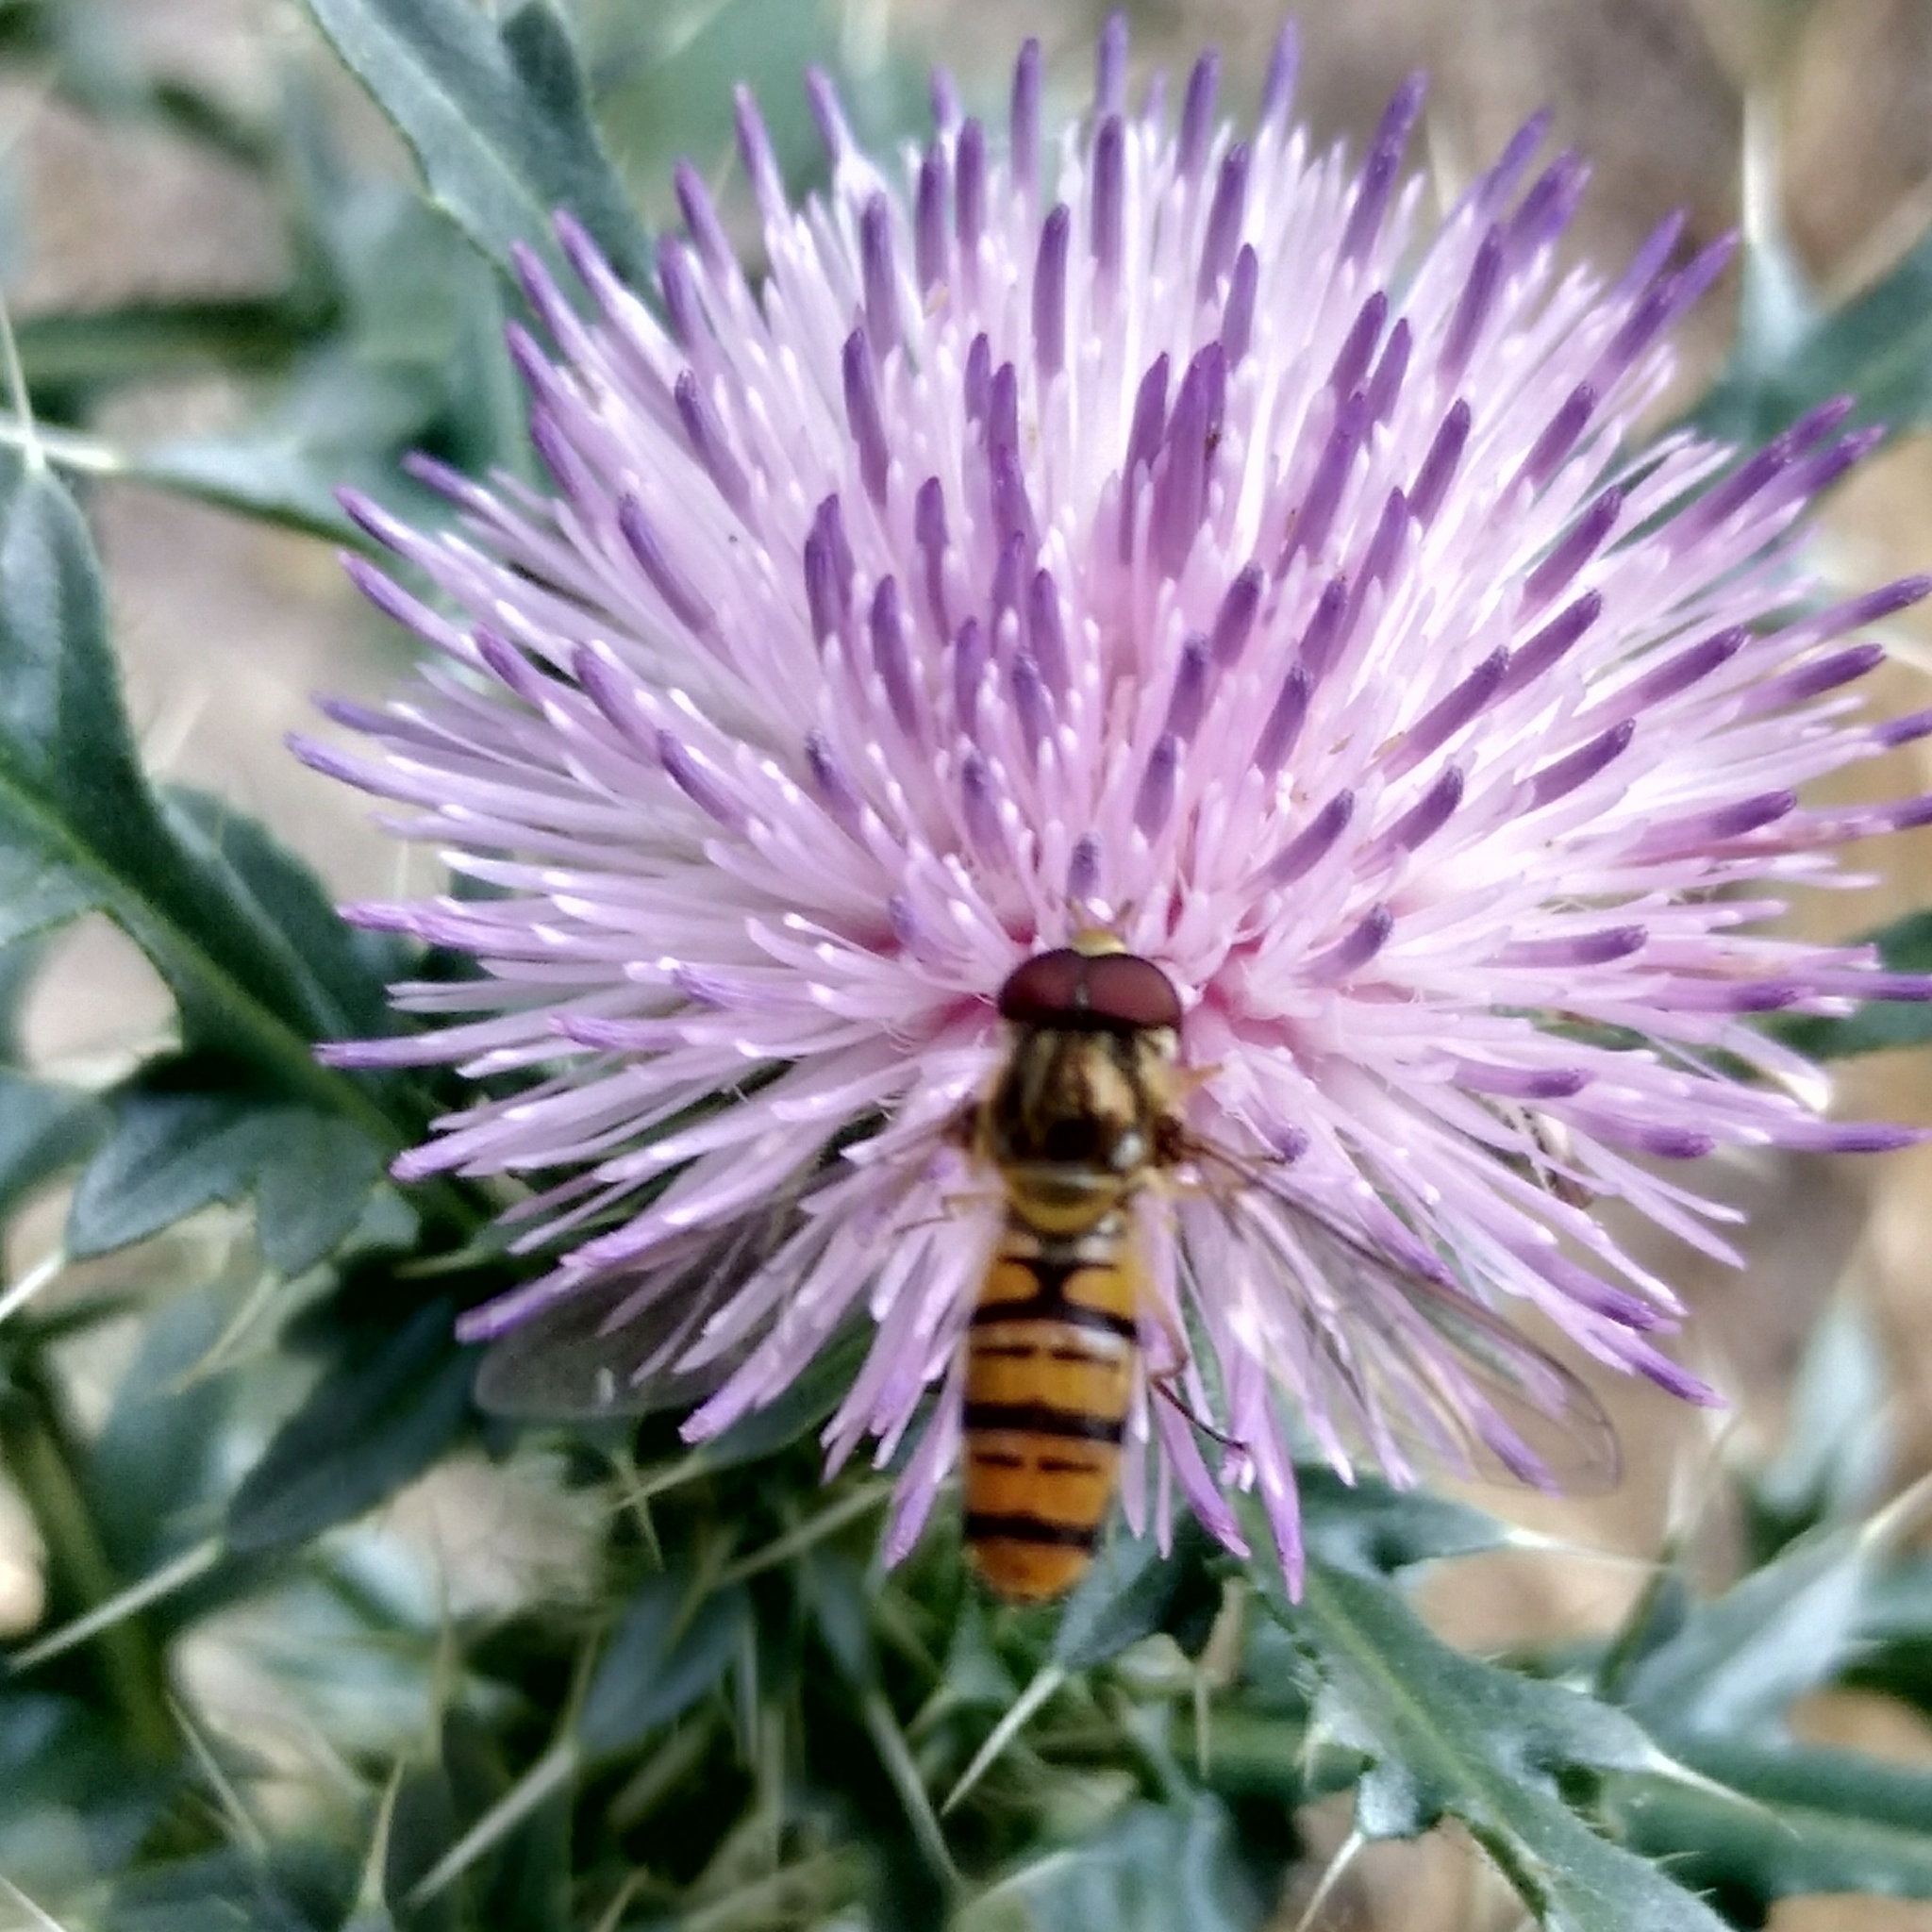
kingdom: Animalia
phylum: Arthropoda
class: Insecta
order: Diptera
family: Syrphidae
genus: Episyrphus
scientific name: Episyrphus balteatus
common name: Marmalade hoverfly
